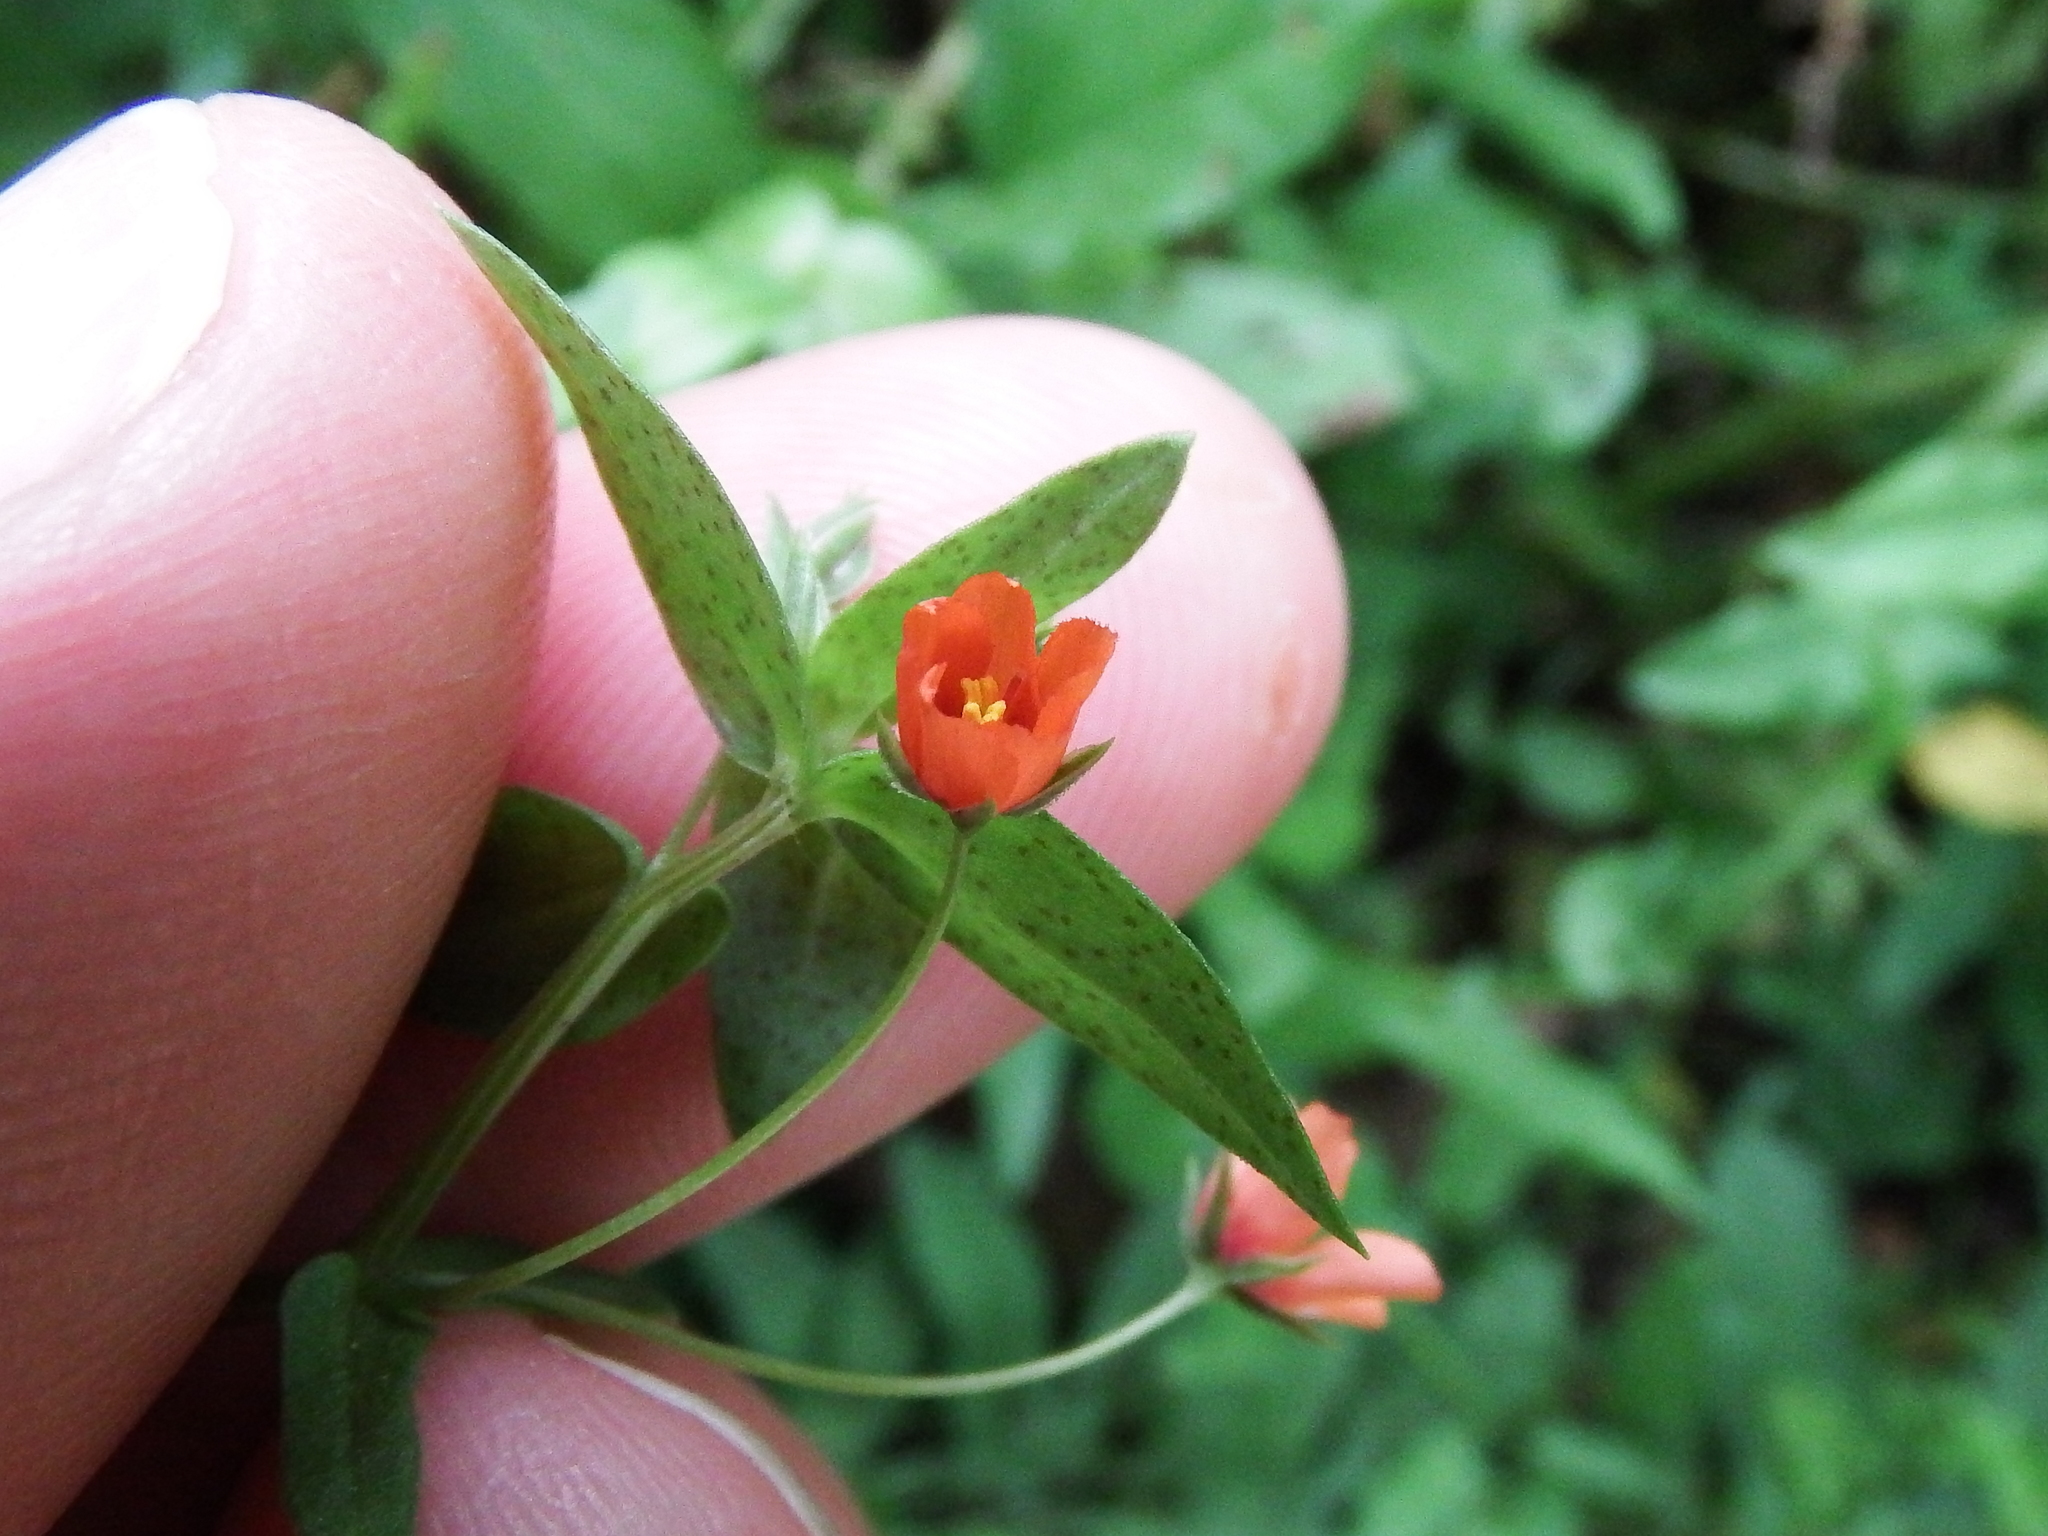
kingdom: Plantae
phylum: Tracheophyta
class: Magnoliopsida
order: Ericales
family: Primulaceae
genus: Lysimachia
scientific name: Lysimachia arvensis
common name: Scarlet pimpernel
